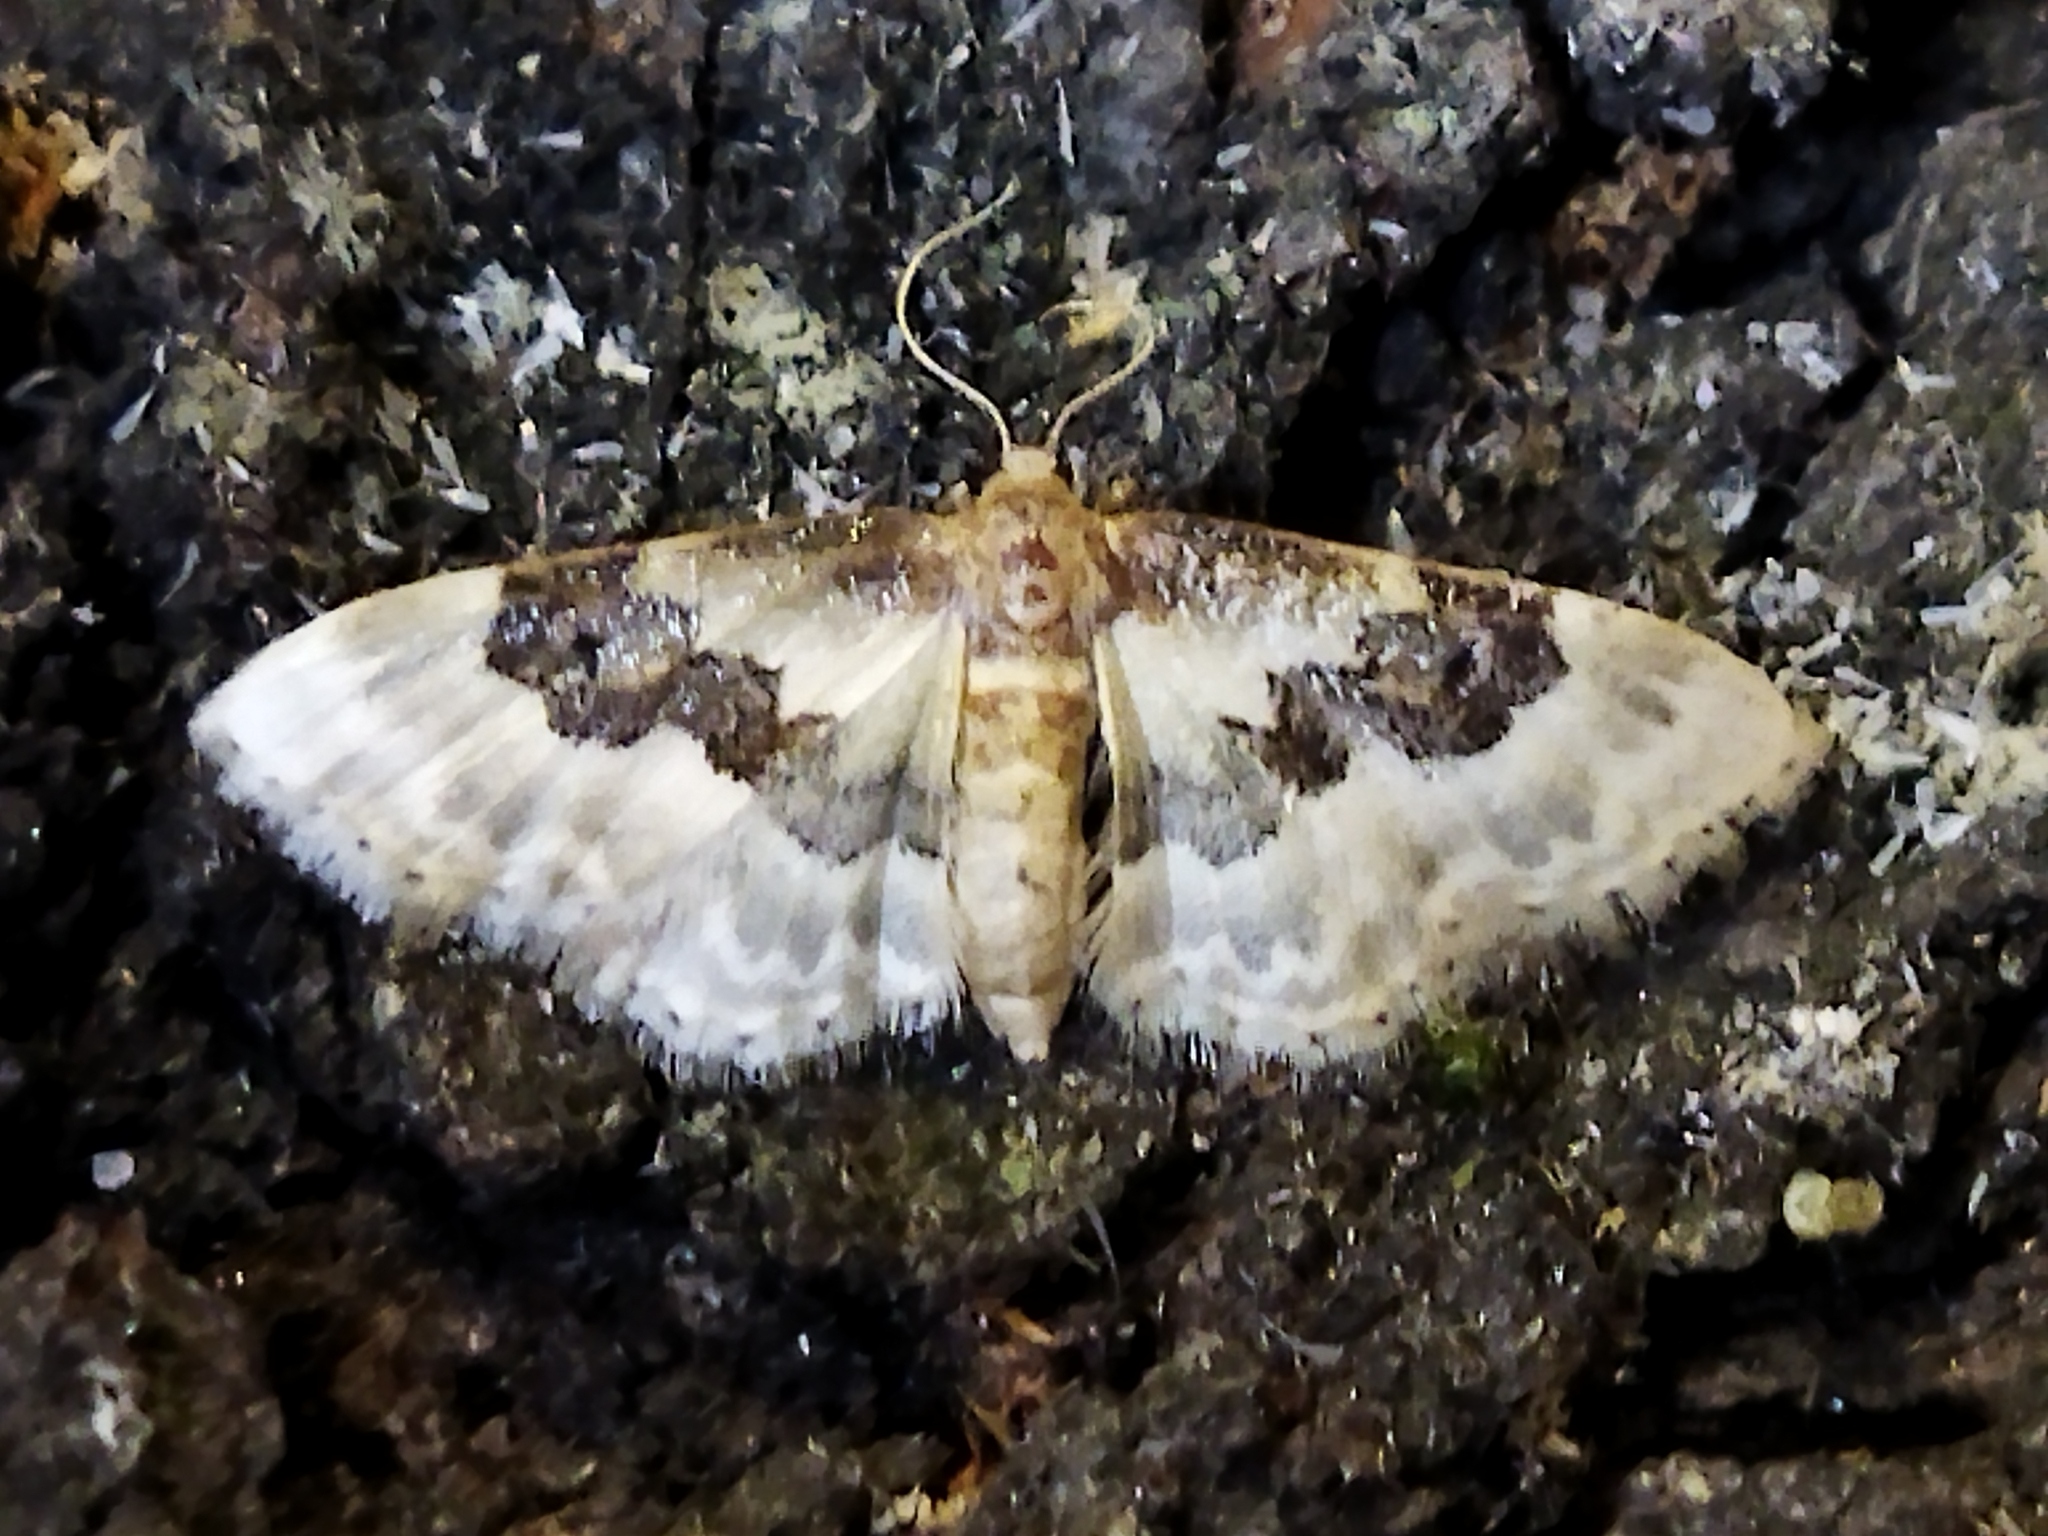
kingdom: Animalia
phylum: Arthropoda
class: Insecta
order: Lepidoptera
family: Geometridae
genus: Idaea
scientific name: Idaea rusticata
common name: Least carpet
